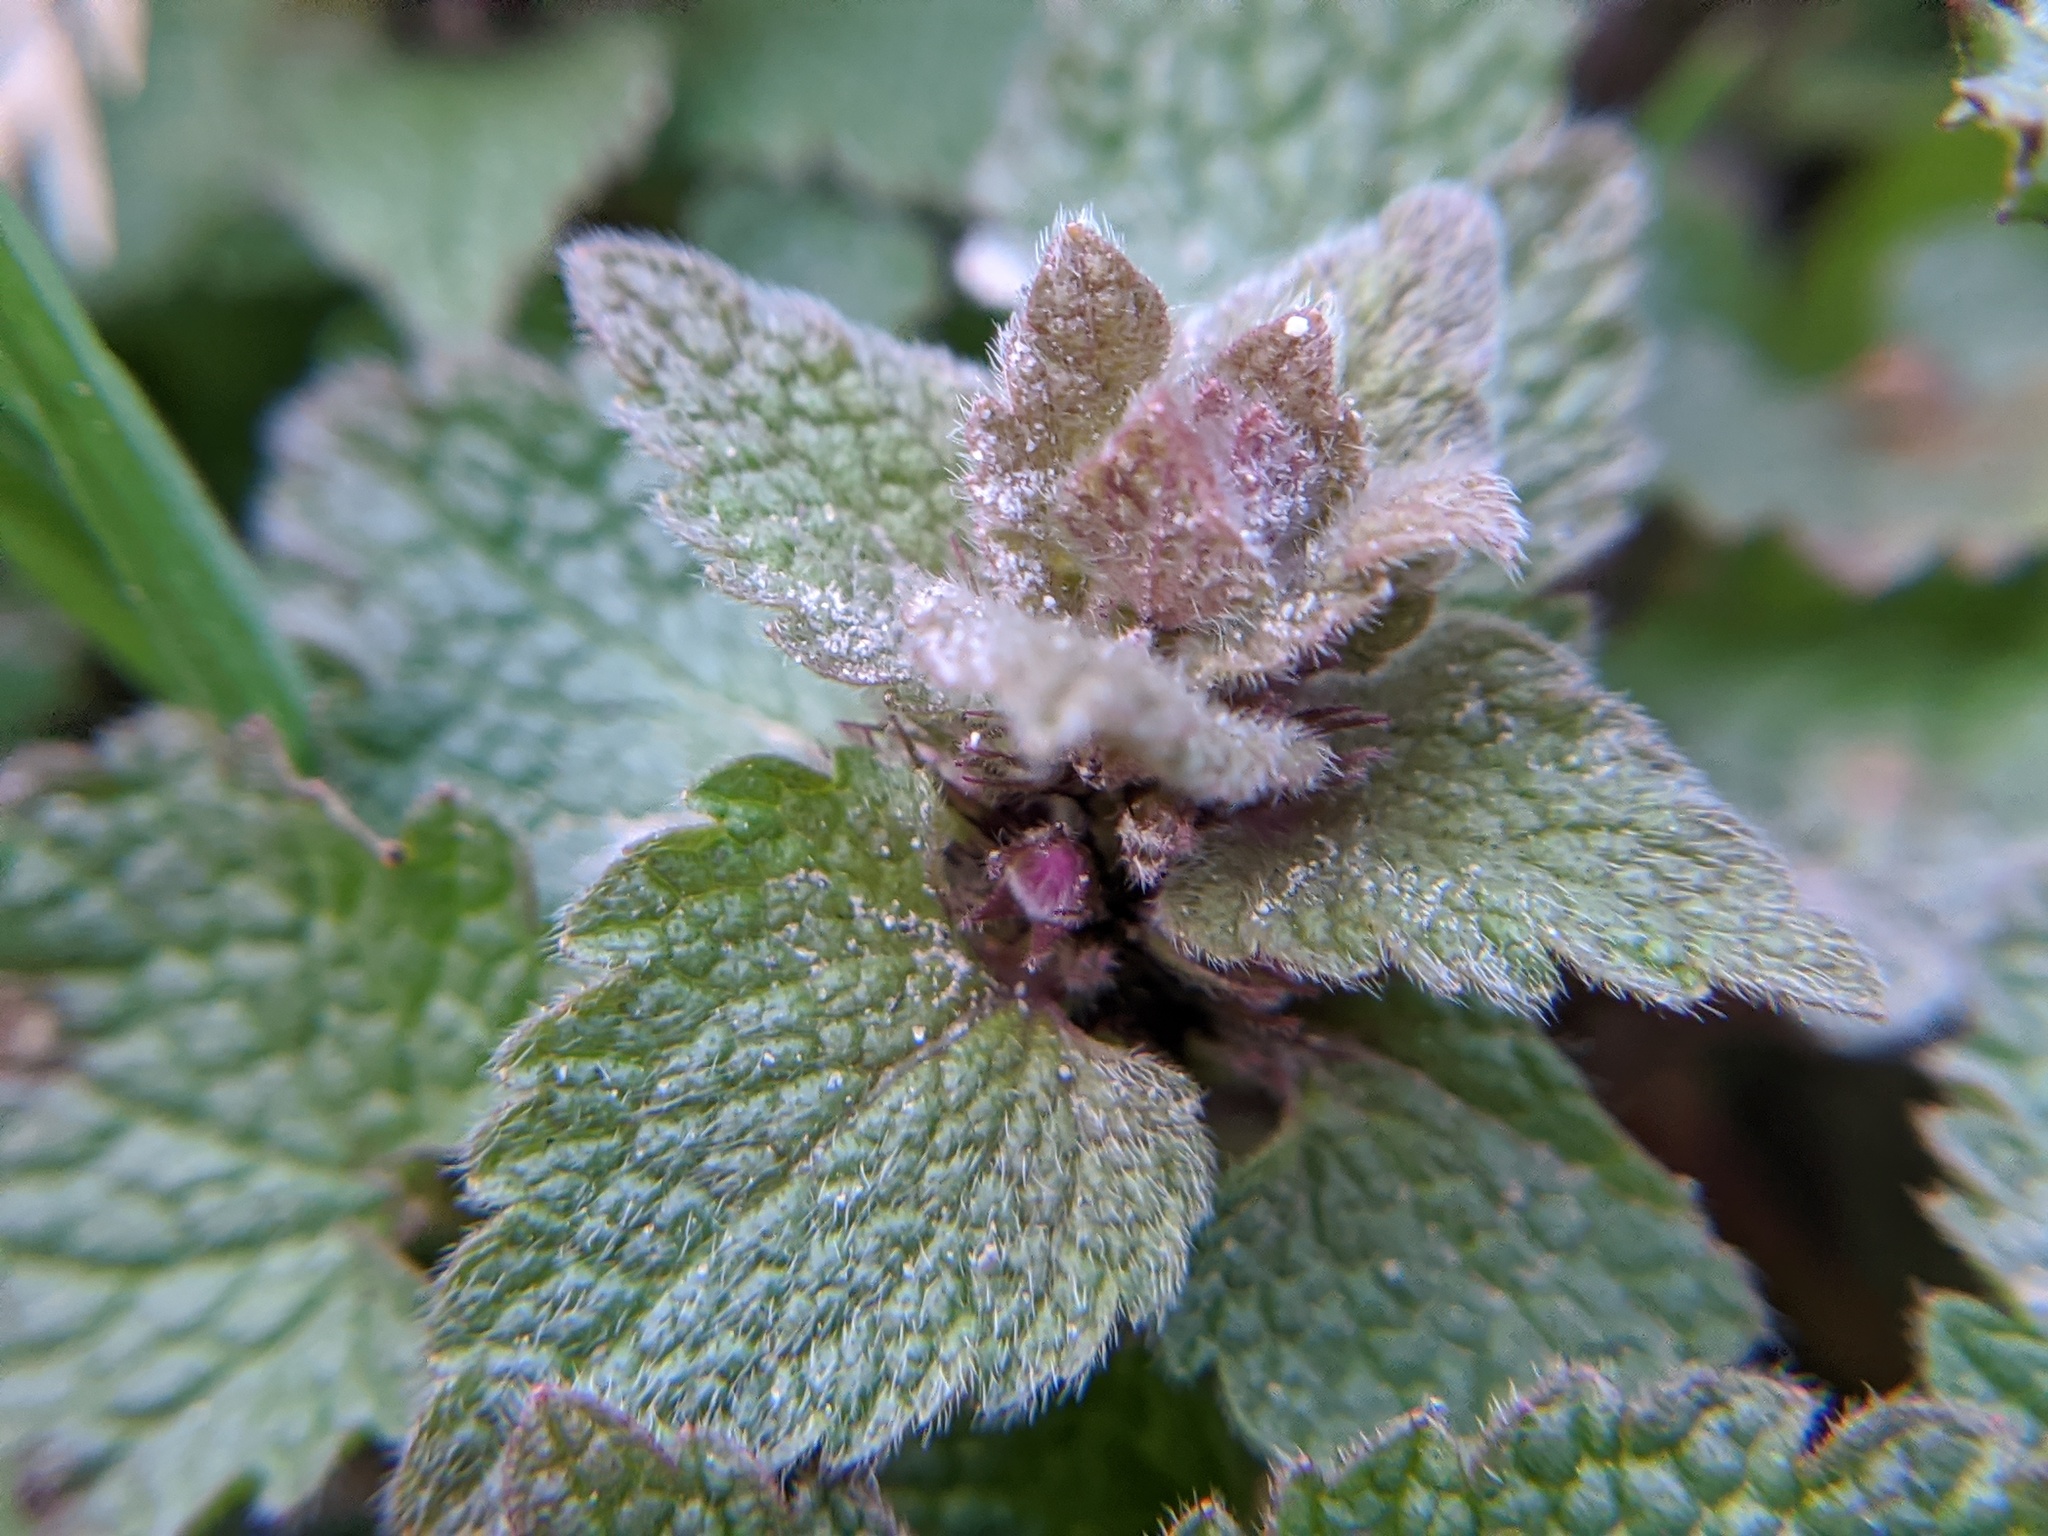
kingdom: Plantae
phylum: Tracheophyta
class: Magnoliopsida
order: Lamiales
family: Lamiaceae
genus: Lamium
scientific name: Lamium purpureum
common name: Red dead-nettle
